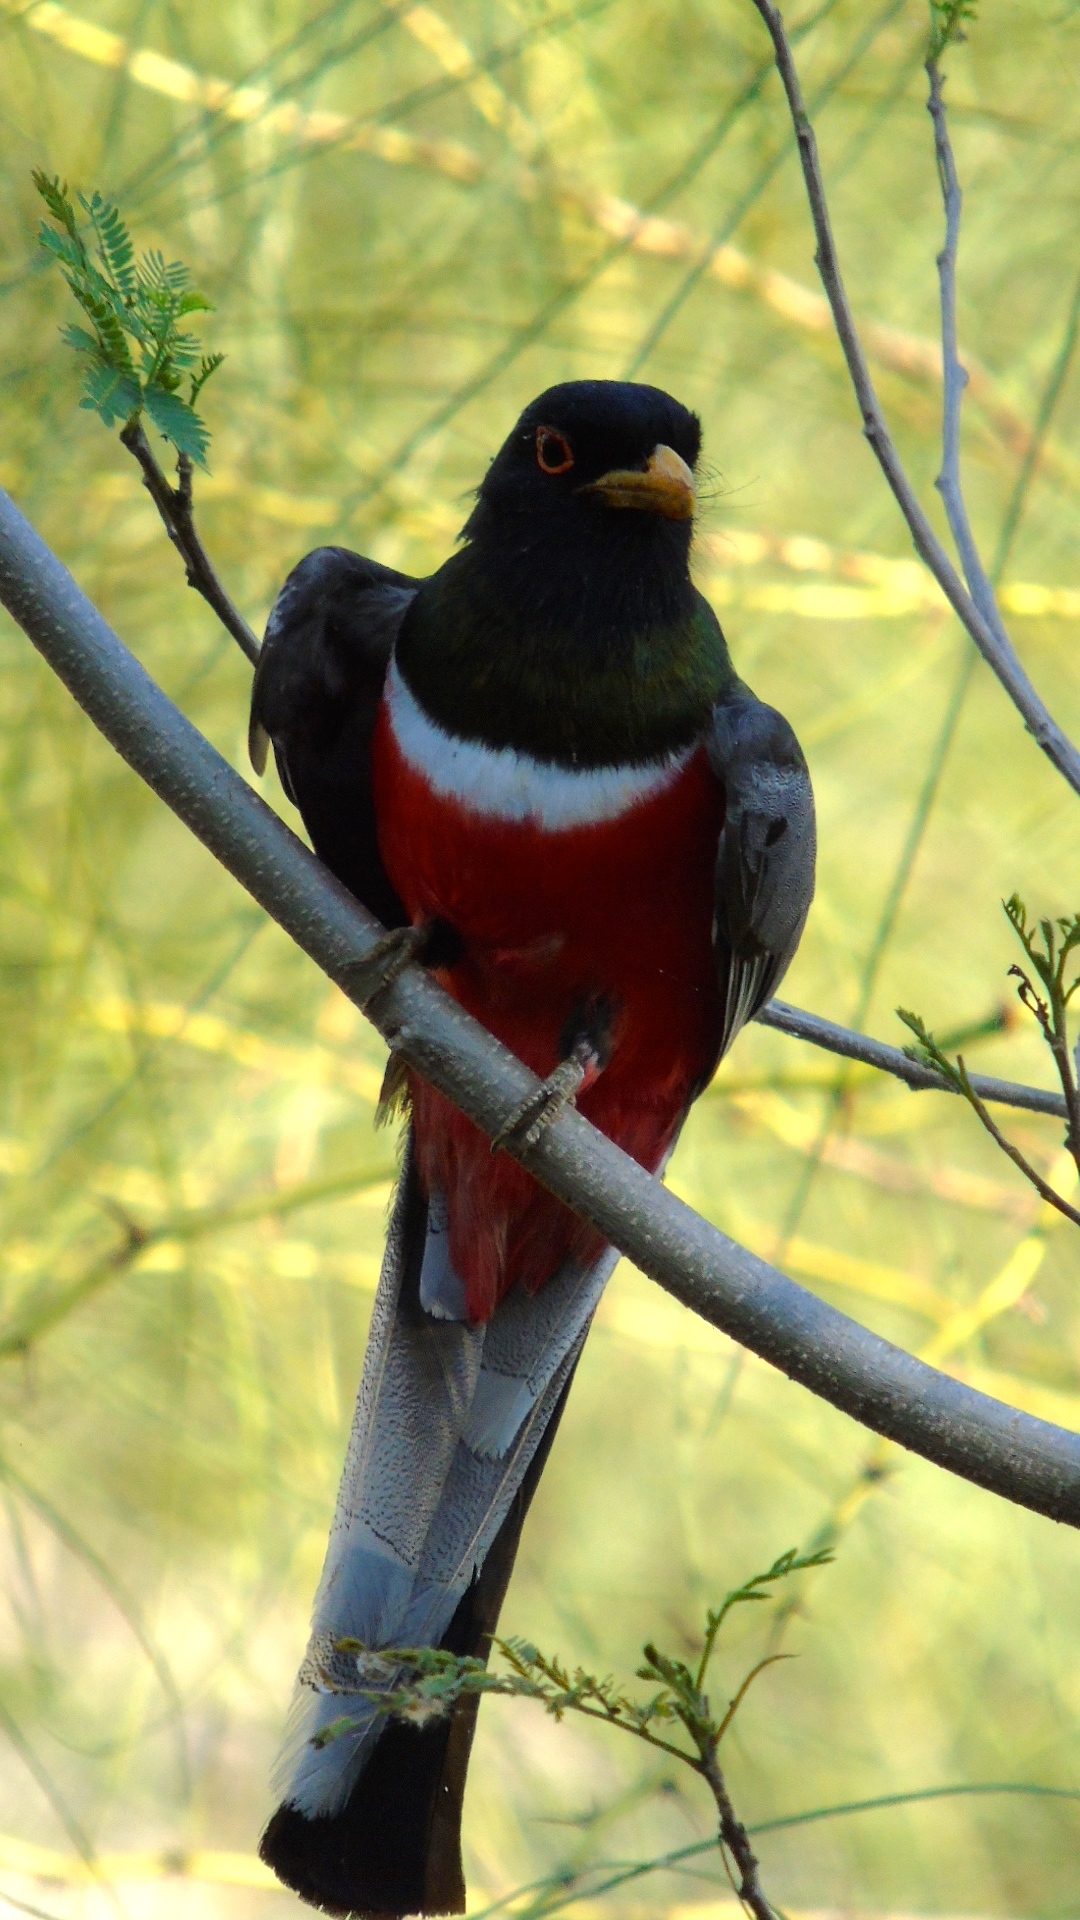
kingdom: Animalia
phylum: Chordata
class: Aves
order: Trogoniformes
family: Trogonidae
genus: Trogon
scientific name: Trogon elegans
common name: Elegant trogon
